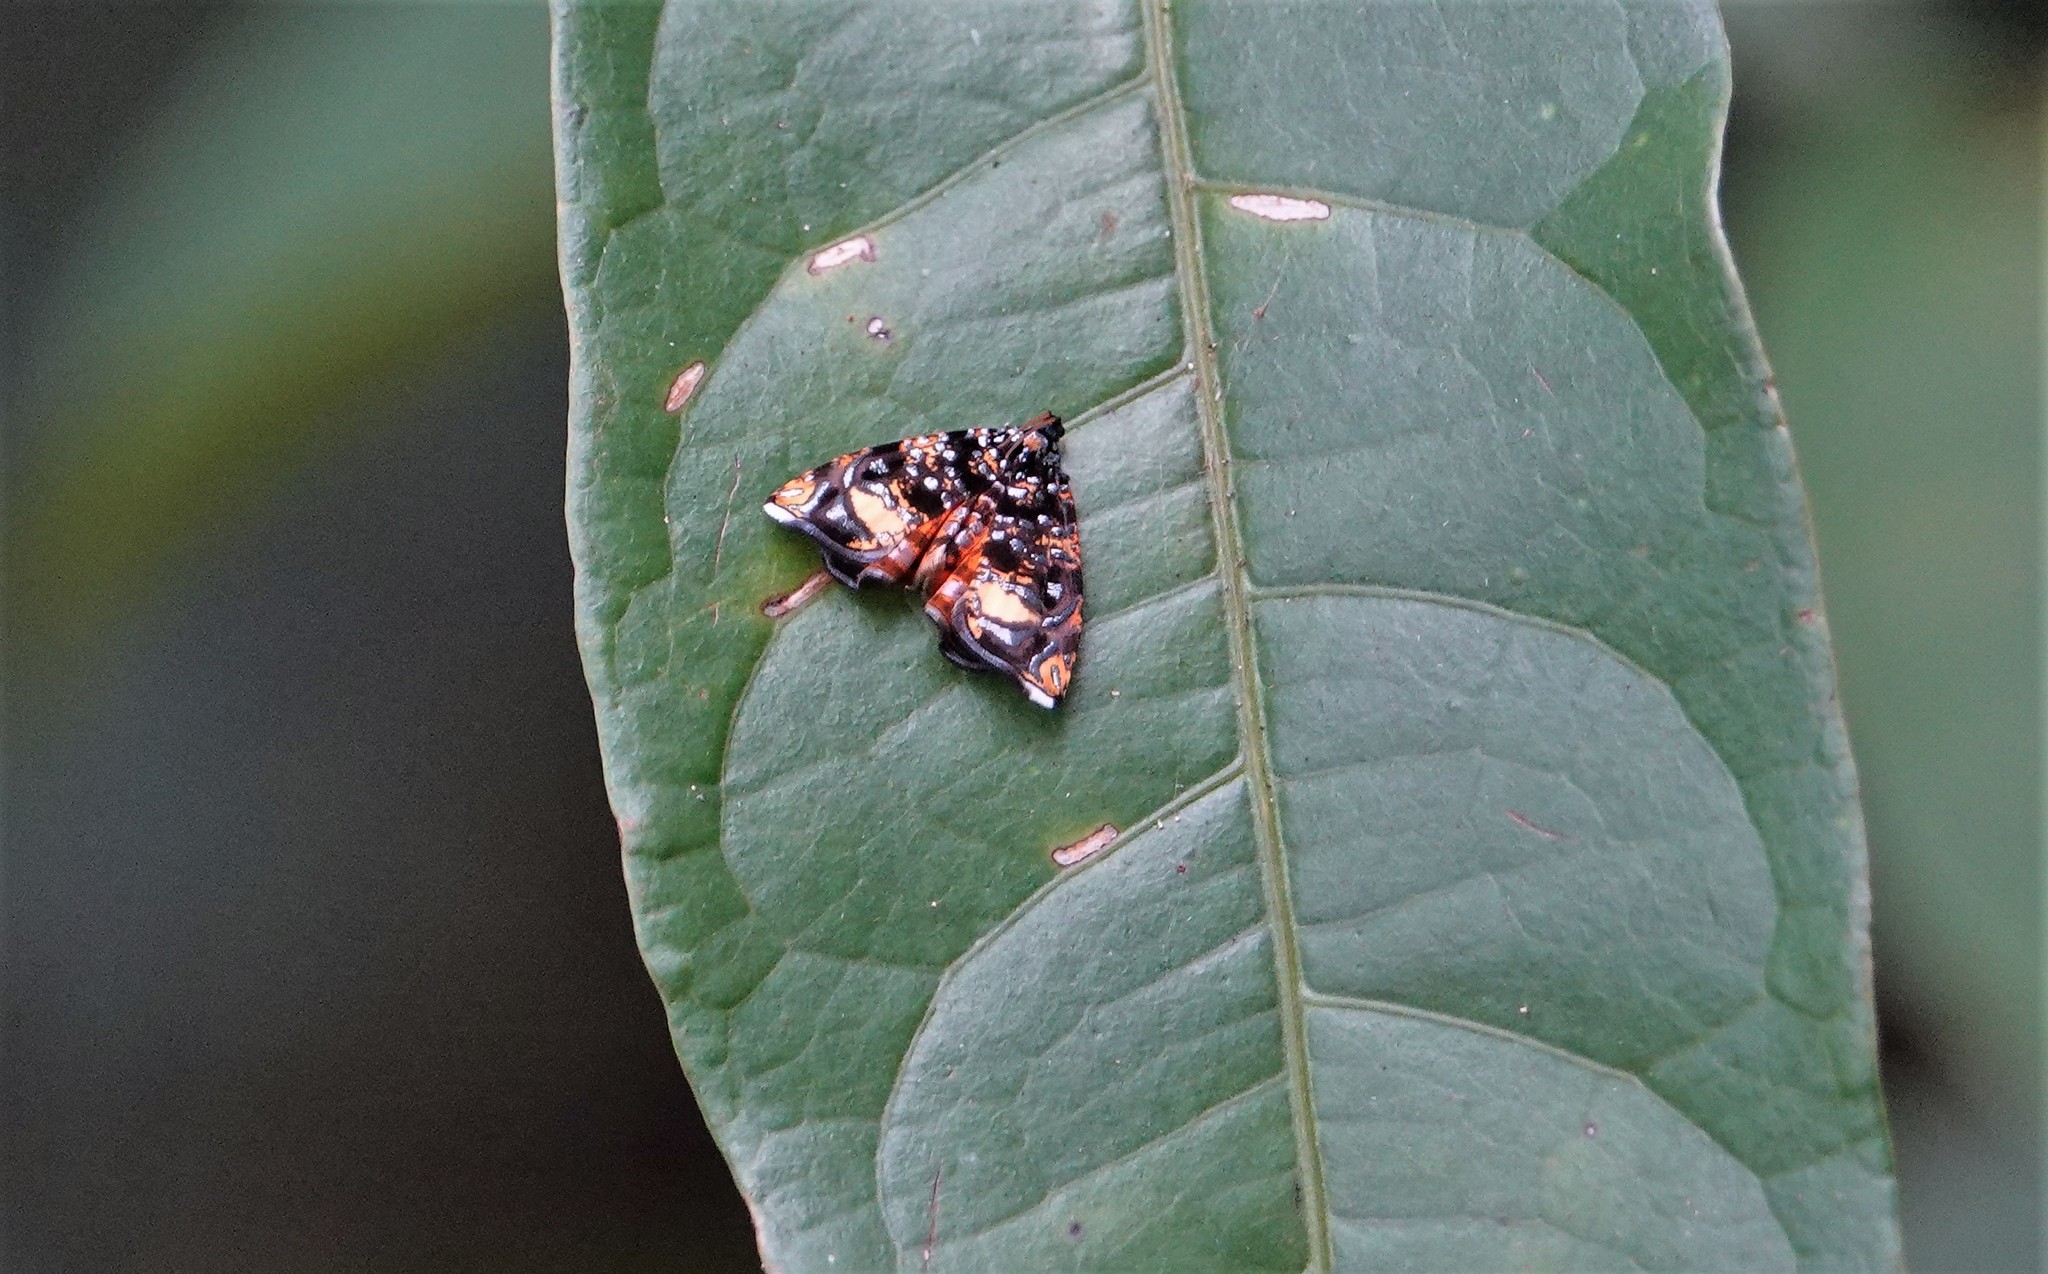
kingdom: Animalia
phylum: Arthropoda
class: Insecta
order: Lepidoptera
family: Tortricidae
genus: Mictopsichia
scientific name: Mictopsichia hubneriana
